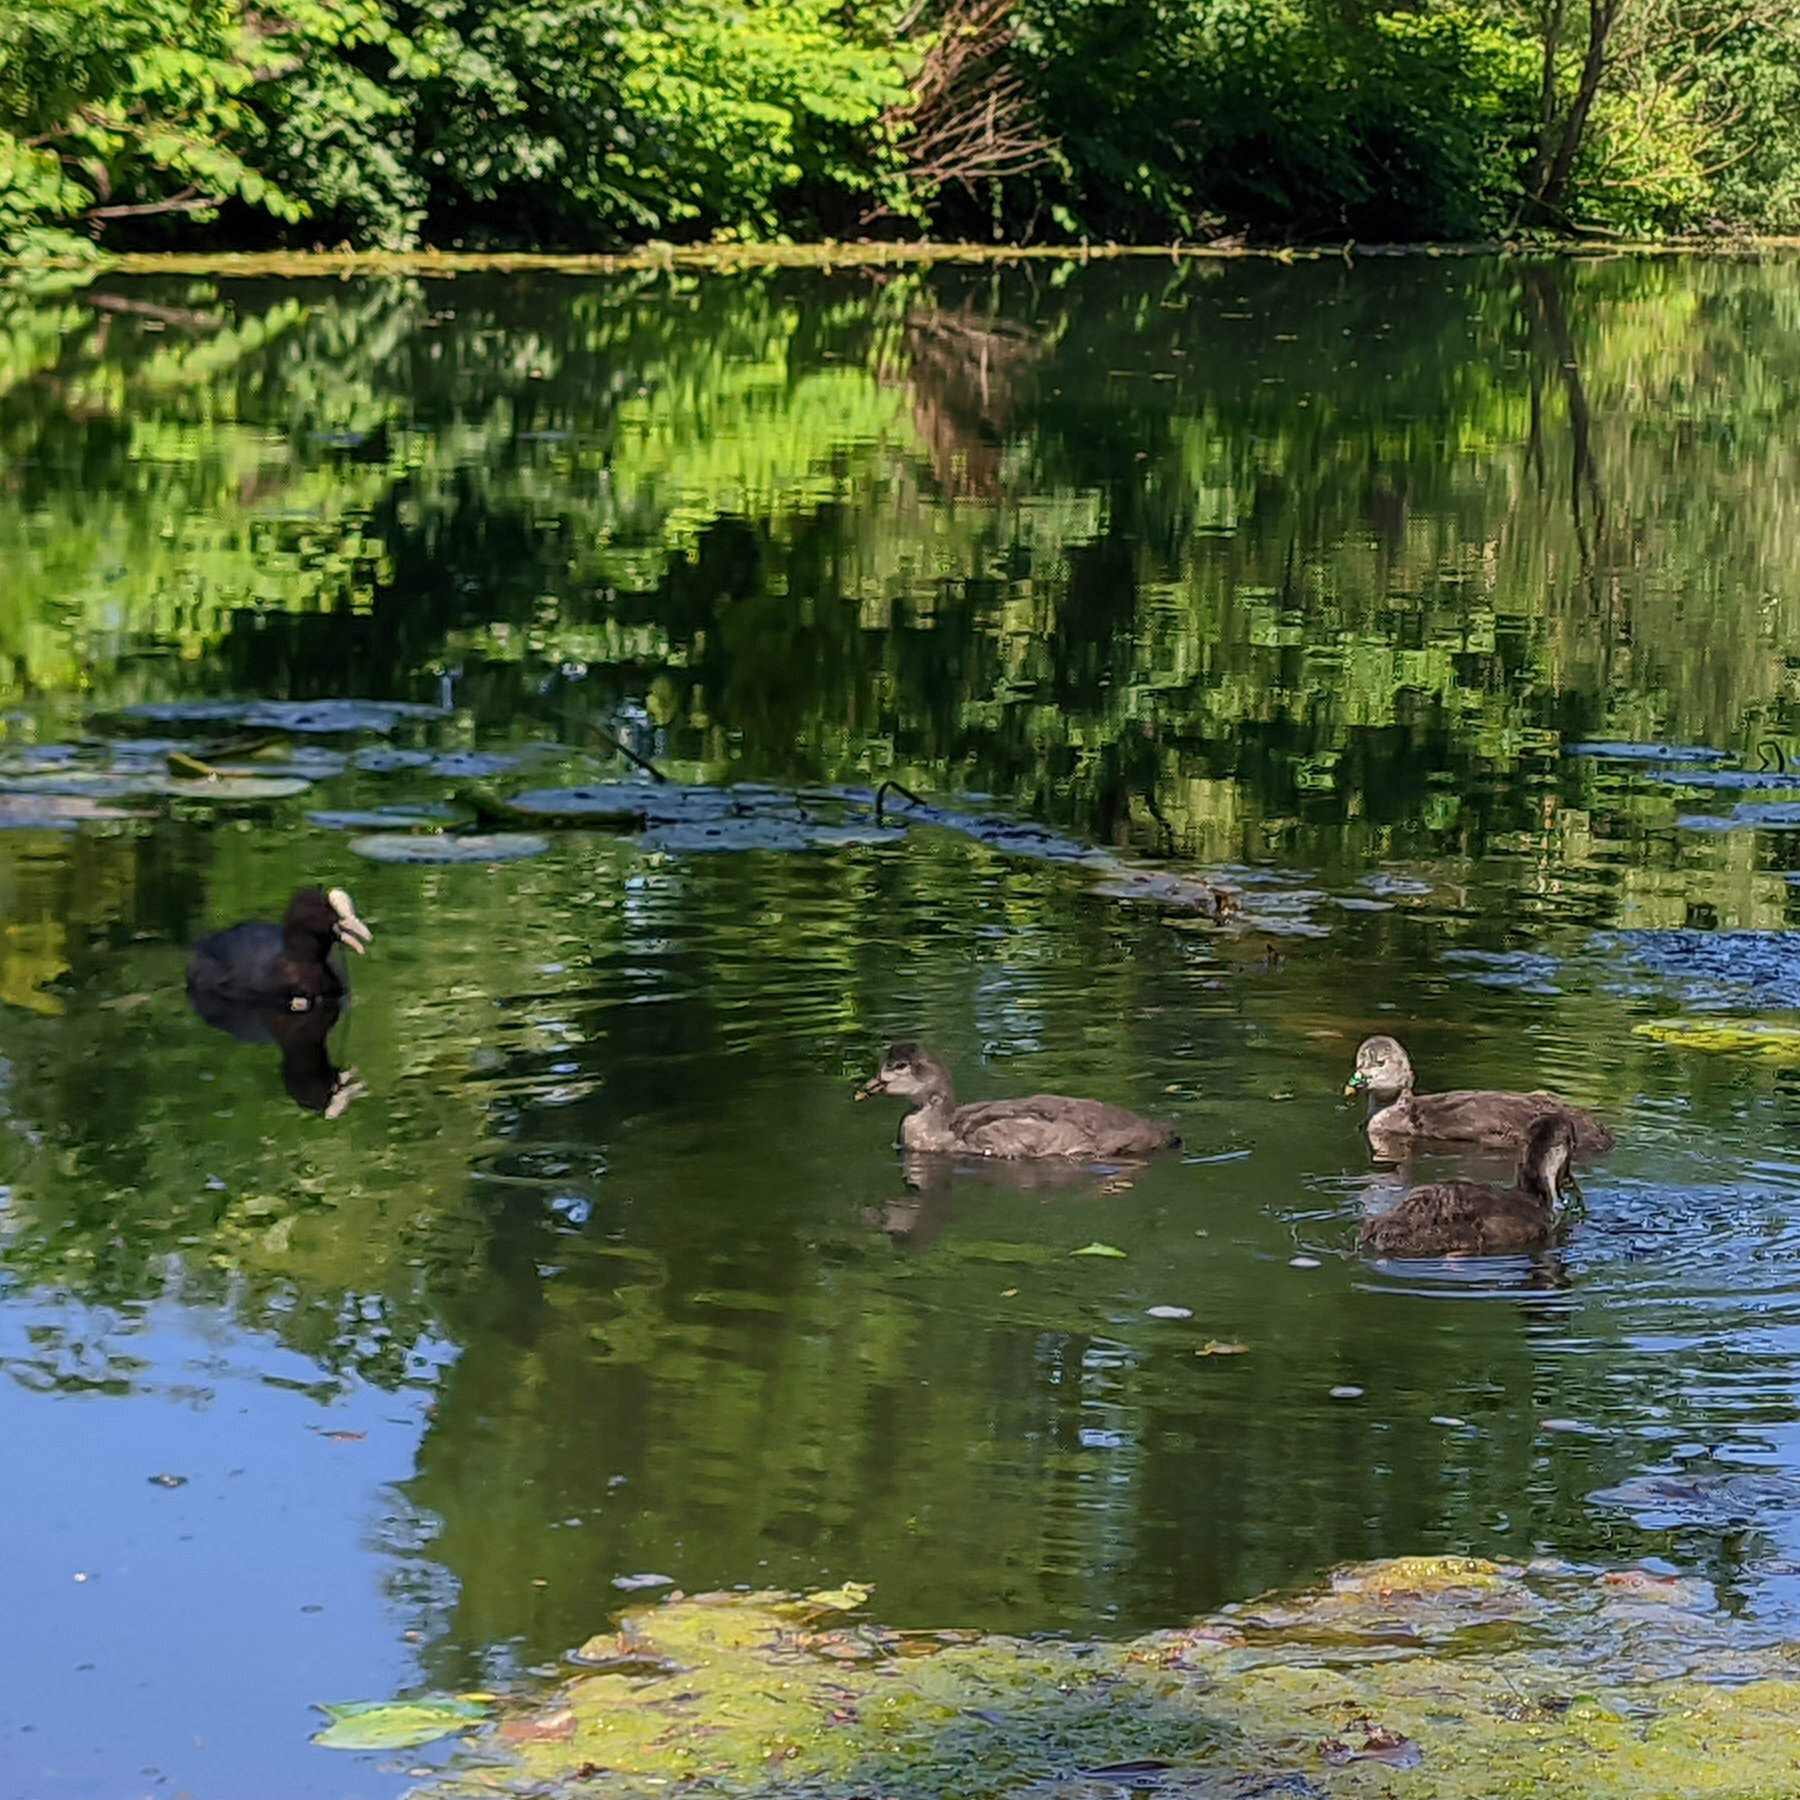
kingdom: Animalia
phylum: Chordata
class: Aves
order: Gruiformes
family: Rallidae
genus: Fulica
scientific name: Fulica atra
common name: Eurasian coot
